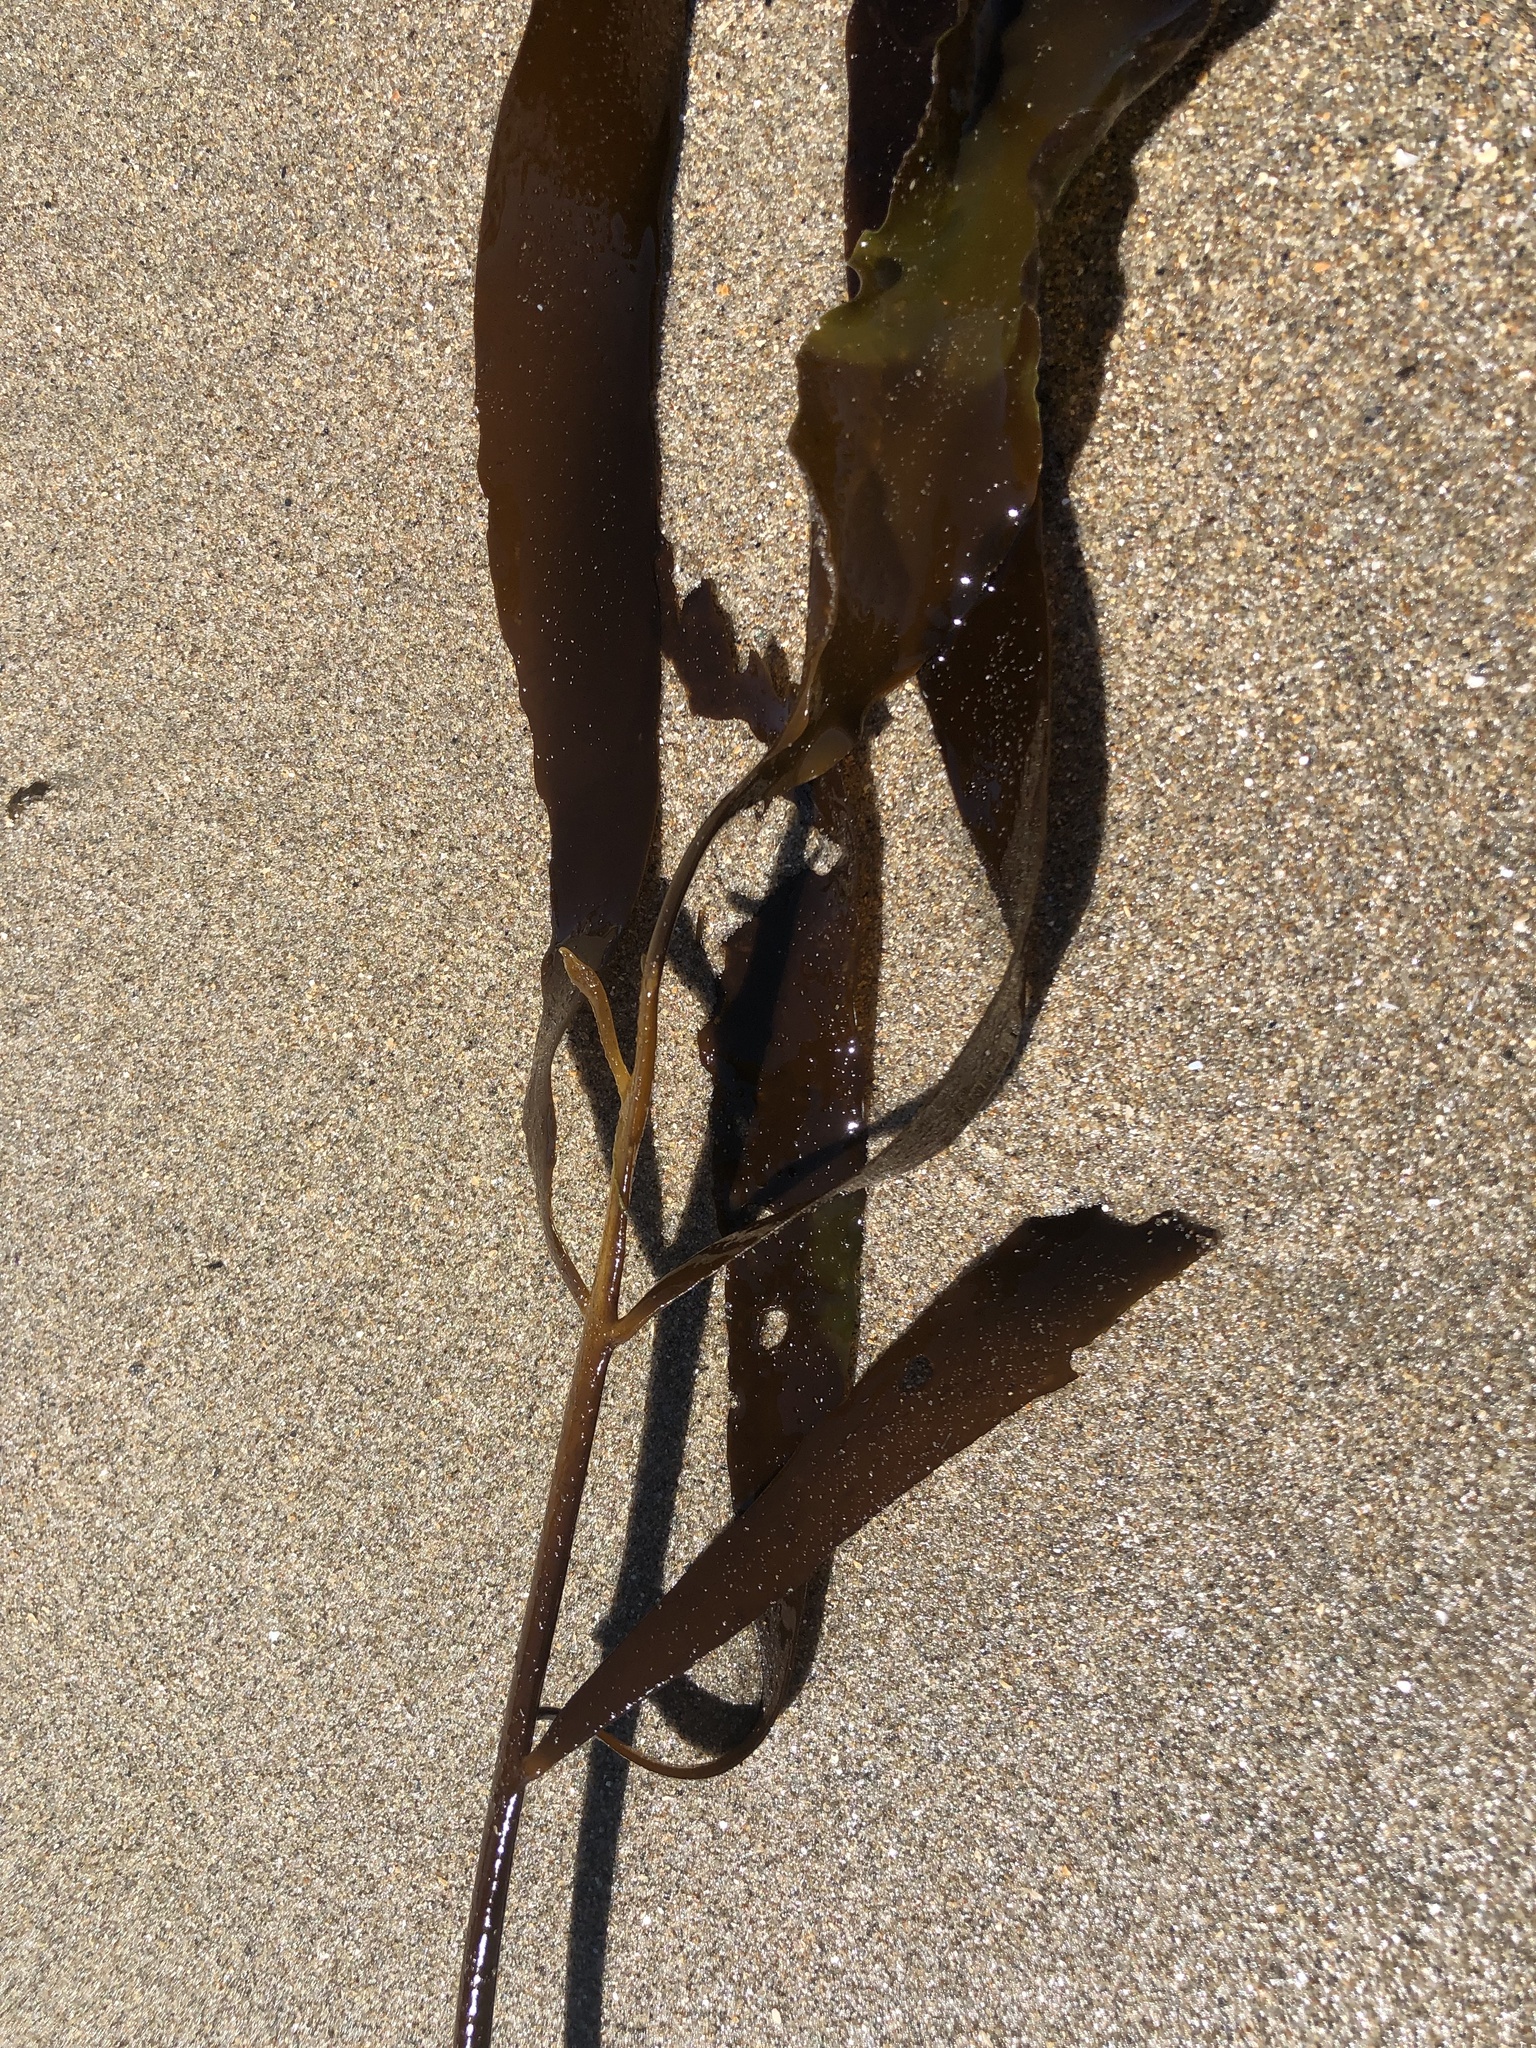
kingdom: Chromista
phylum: Ochrophyta
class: Phaeophyceae
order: Laminariales
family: Alariaceae
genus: Pterygophora
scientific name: Pterygophora californica
